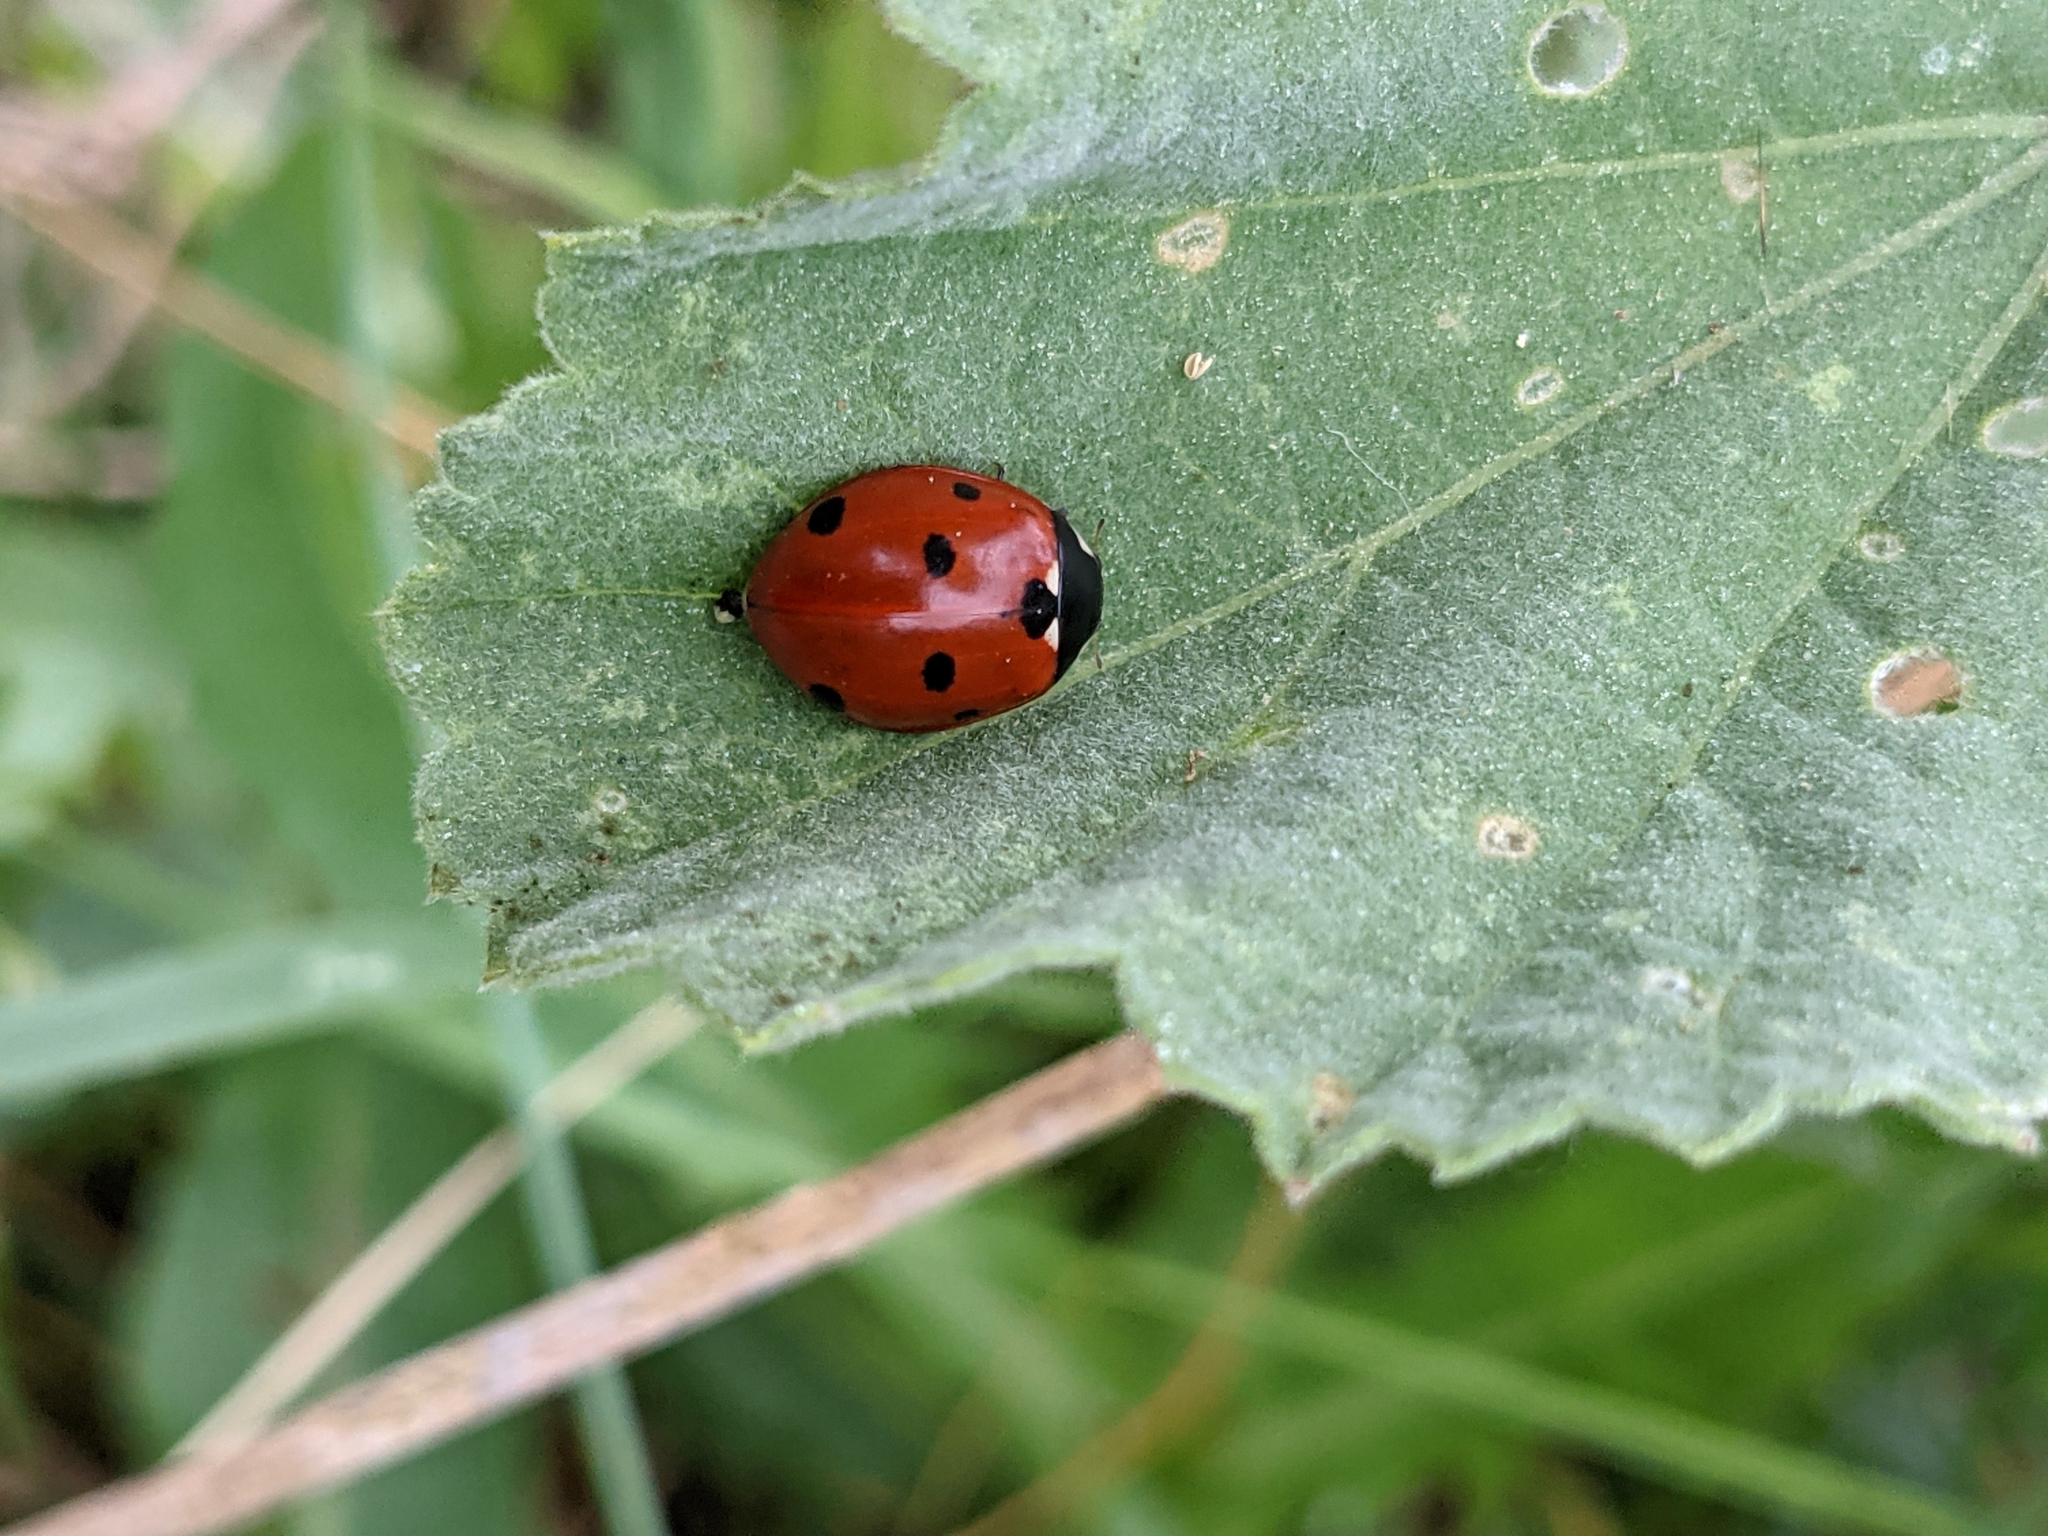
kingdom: Animalia
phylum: Arthropoda
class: Insecta
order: Coleoptera
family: Coccinellidae
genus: Coccinella
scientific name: Coccinella septempunctata
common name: Sevenspotted lady beetle
